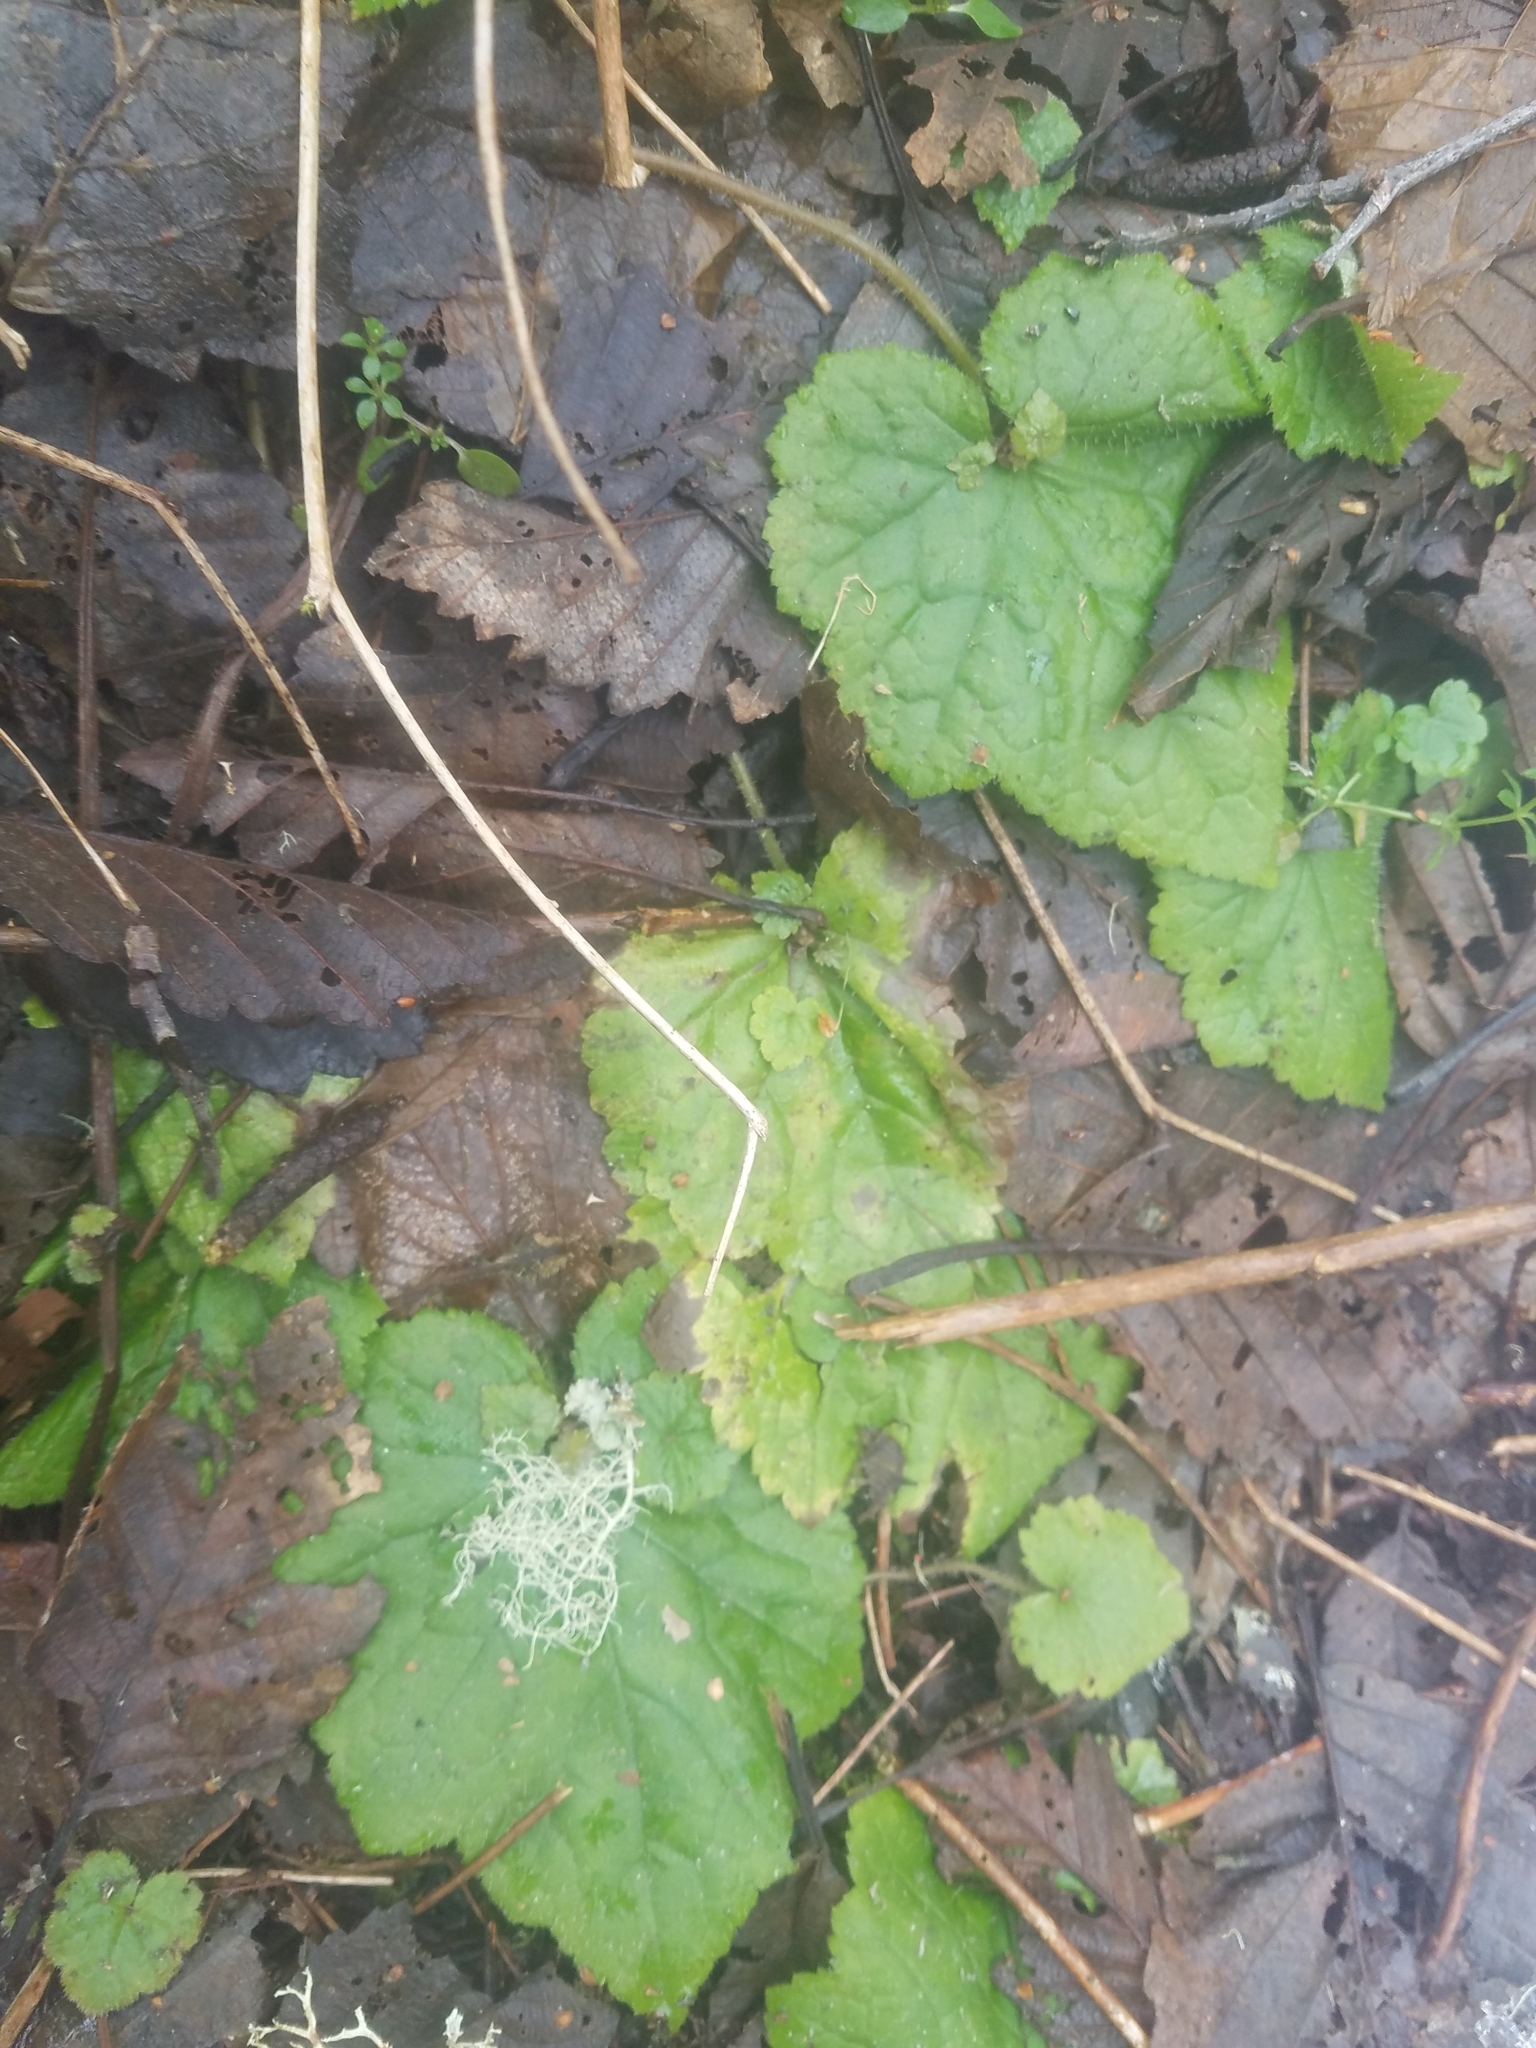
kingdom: Plantae
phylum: Tracheophyta
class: Magnoliopsida
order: Saxifragales
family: Saxifragaceae
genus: Tolmiea
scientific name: Tolmiea menziesii
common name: Pick-a-back-plant
